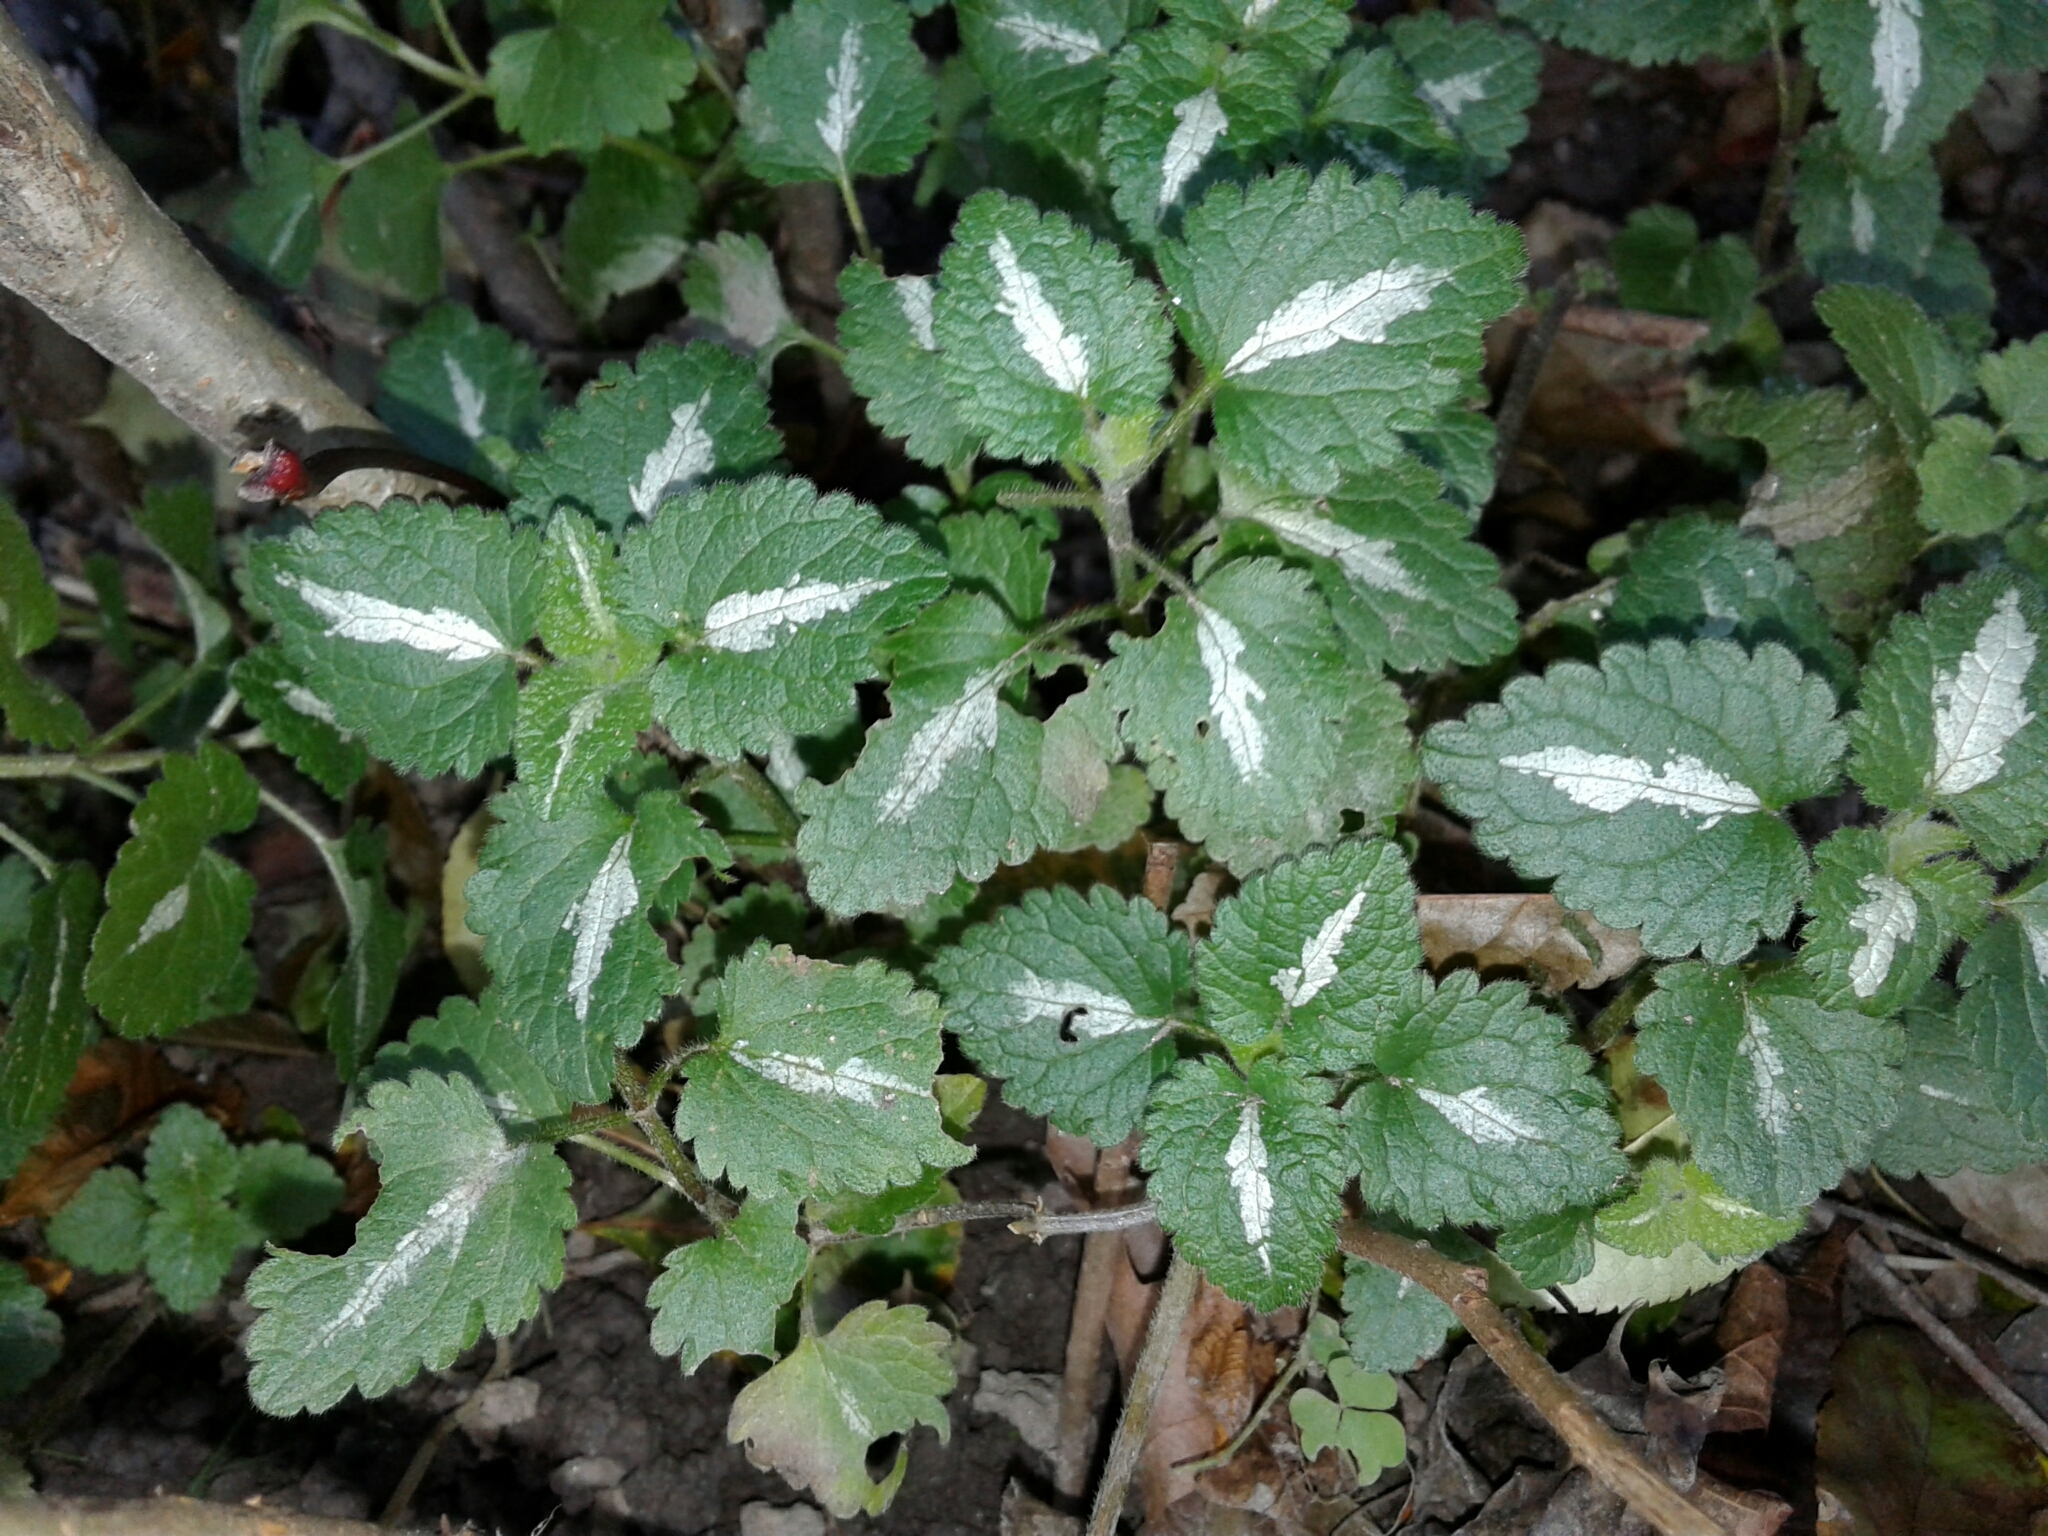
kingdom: Plantae
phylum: Tracheophyta
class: Magnoliopsida
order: Lamiales
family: Lamiaceae
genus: Lamium
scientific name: Lamium maculatum
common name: Spotted dead-nettle
